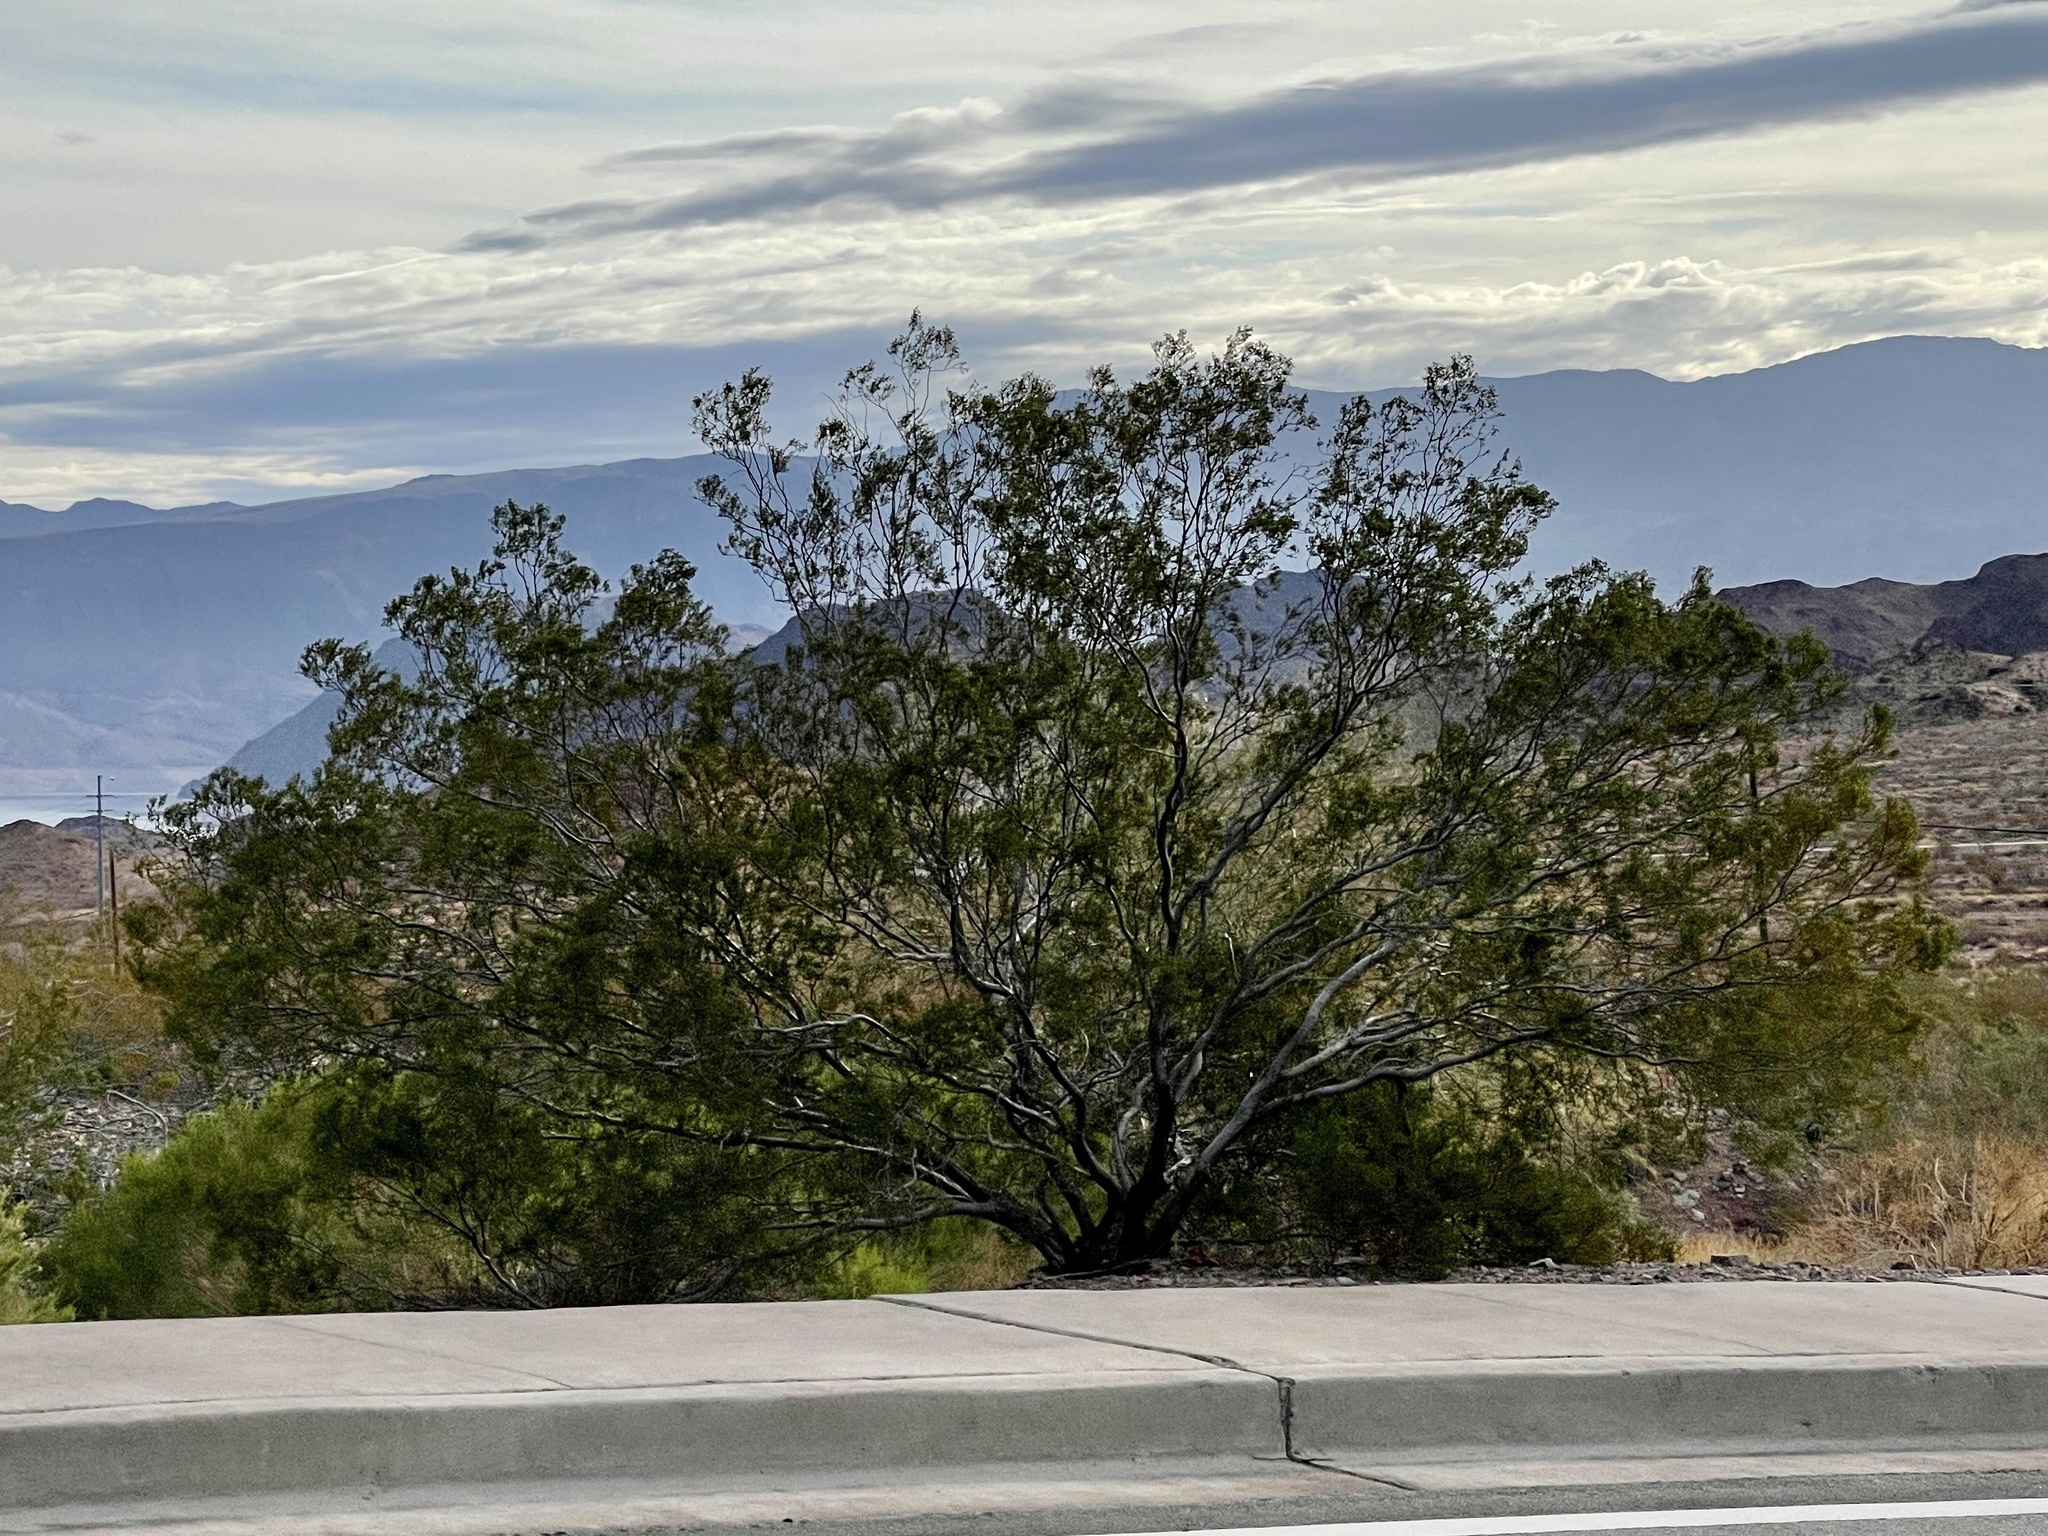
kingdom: Plantae
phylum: Tracheophyta
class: Magnoliopsida
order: Zygophyllales
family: Zygophyllaceae
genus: Larrea
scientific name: Larrea tridentata
